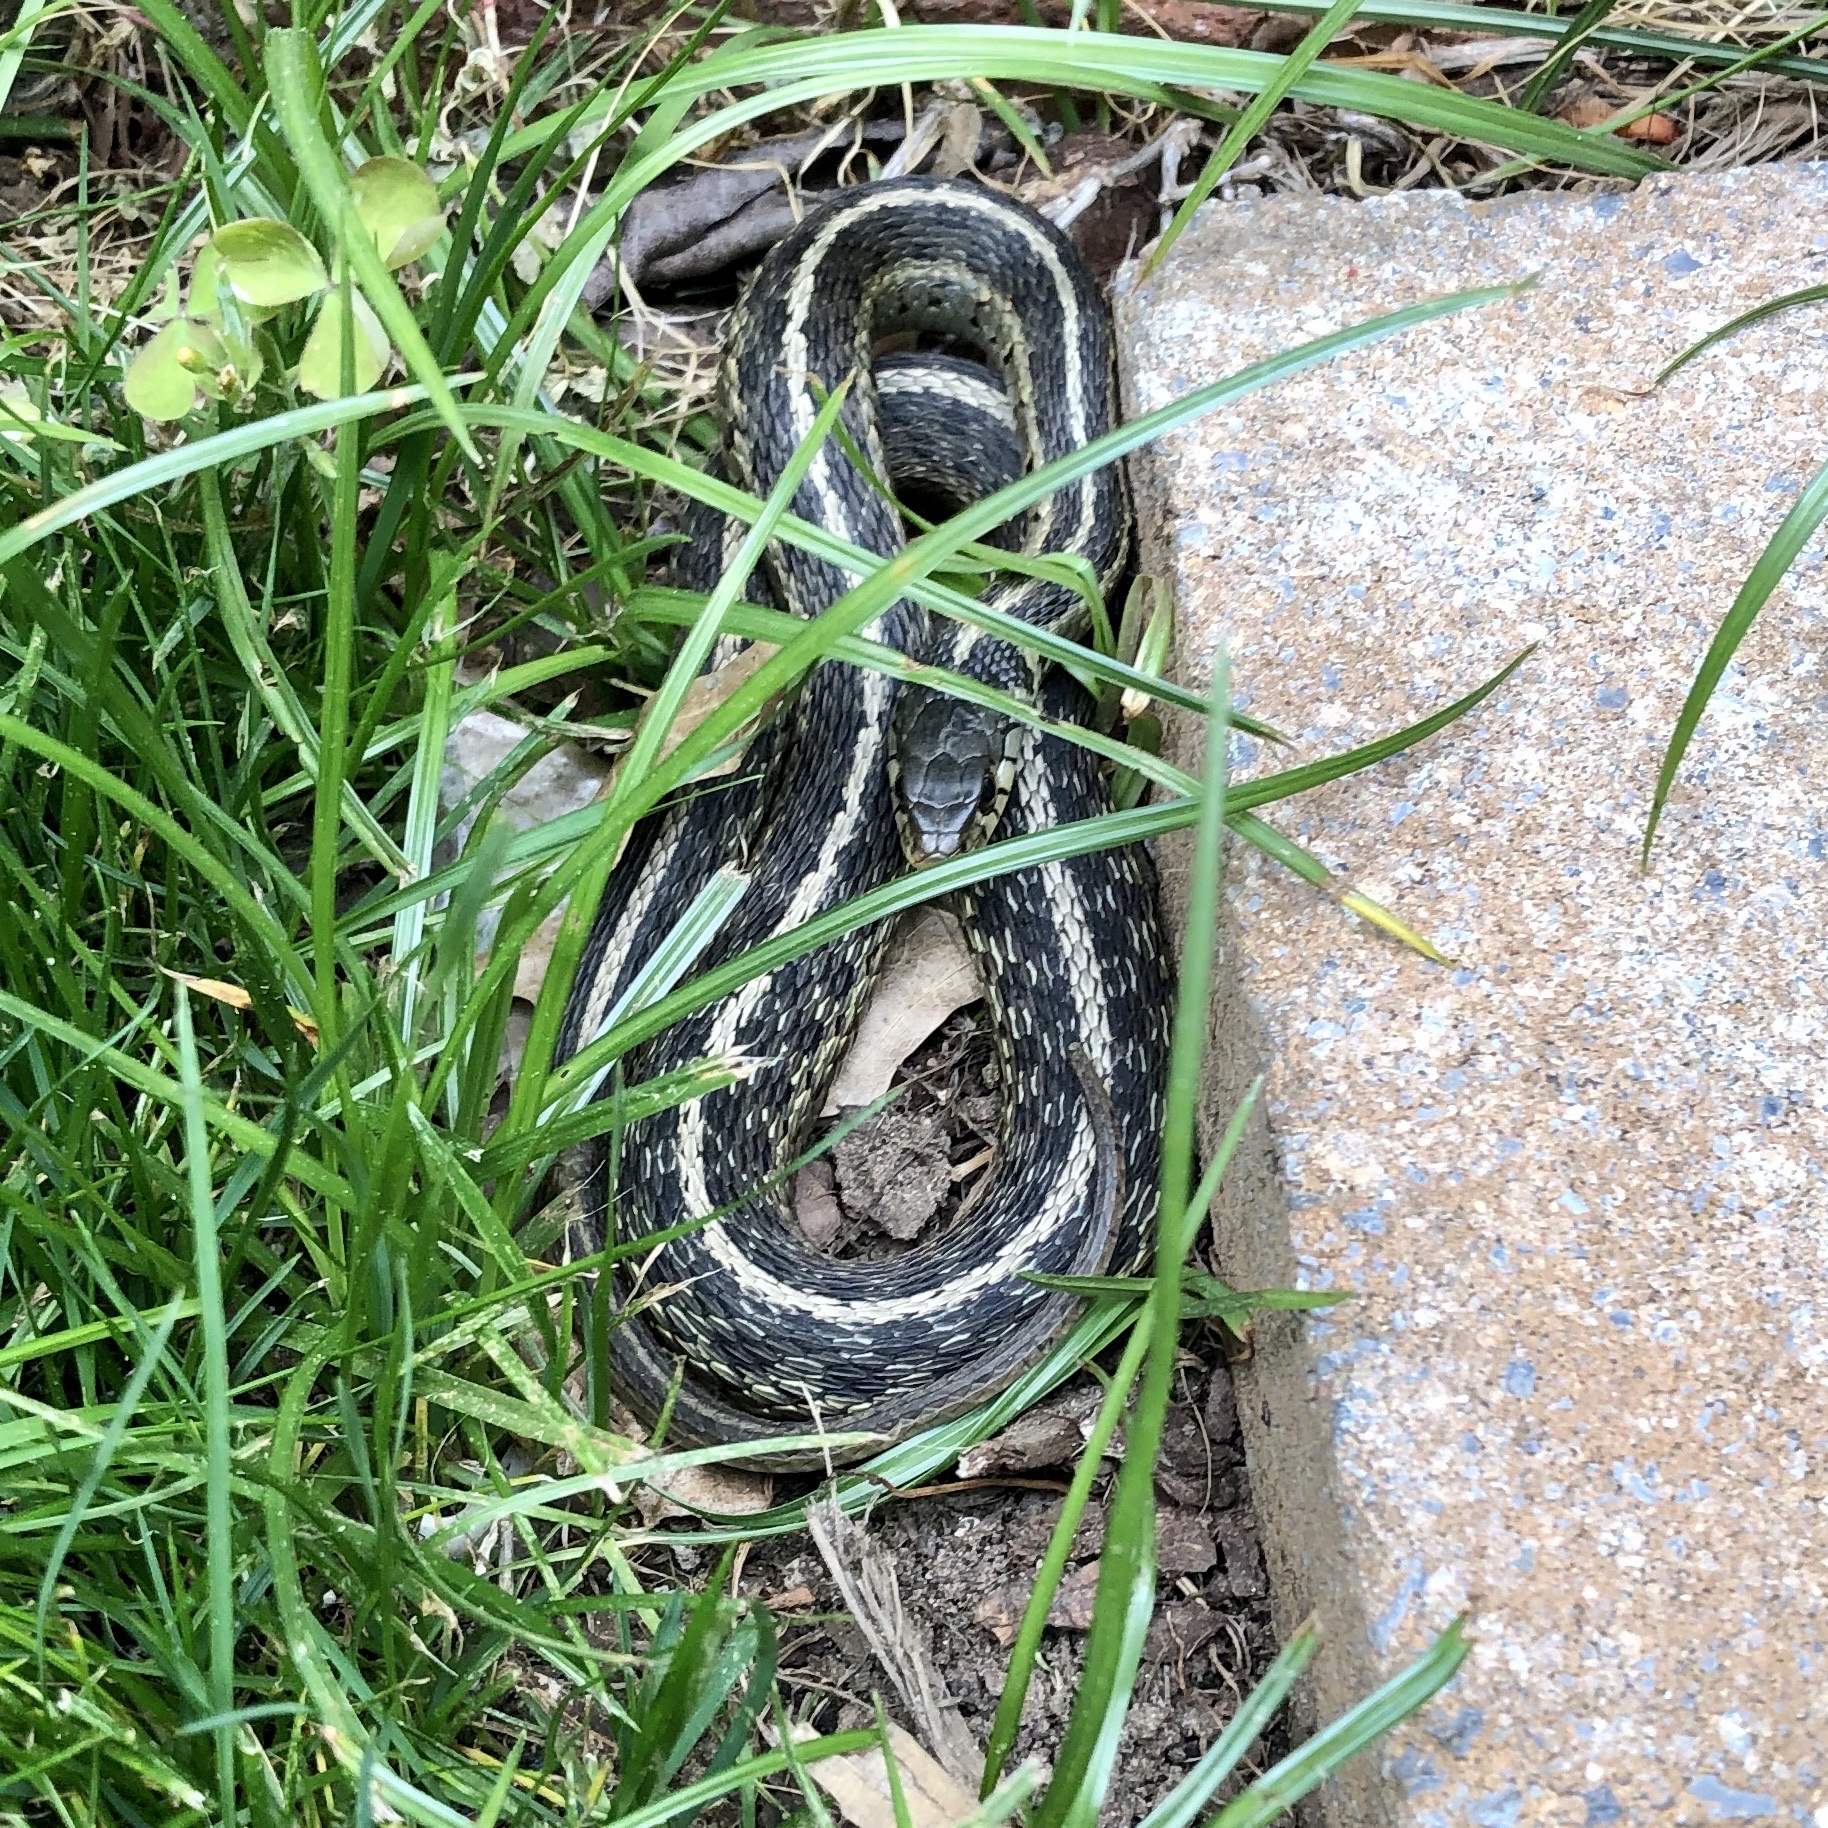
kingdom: Animalia
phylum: Chordata
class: Squamata
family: Colubridae
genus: Thamnophis
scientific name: Thamnophis sirtalis
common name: Common garter snake
